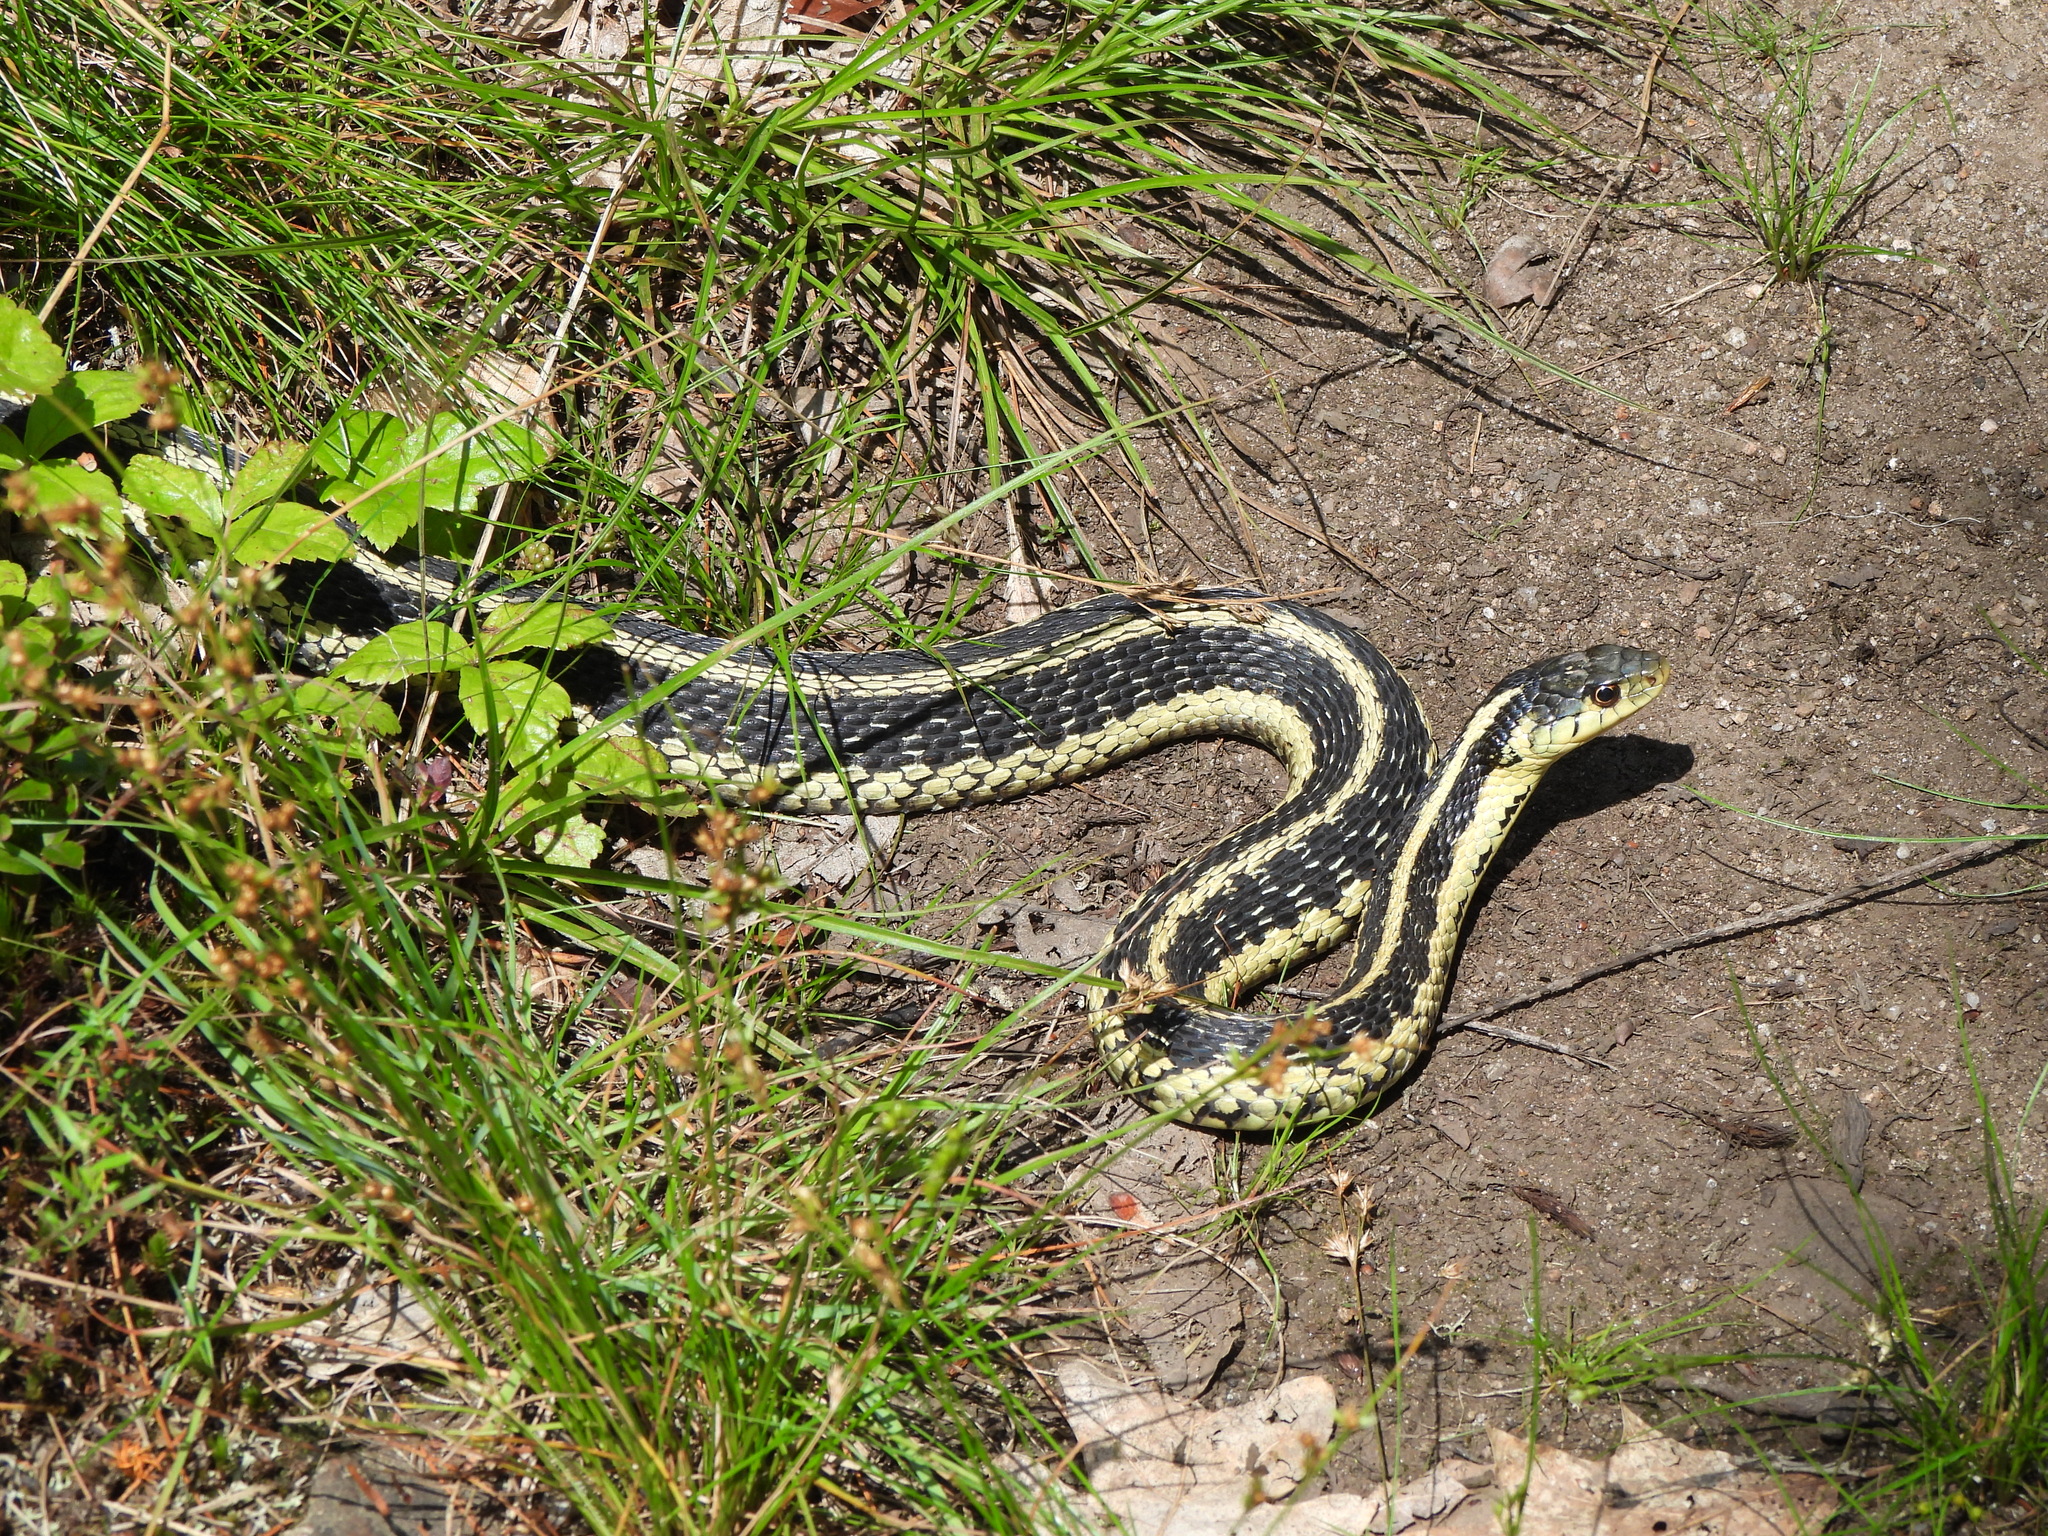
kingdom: Animalia
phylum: Chordata
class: Squamata
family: Colubridae
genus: Thamnophis
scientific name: Thamnophis sirtalis
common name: Common garter snake
